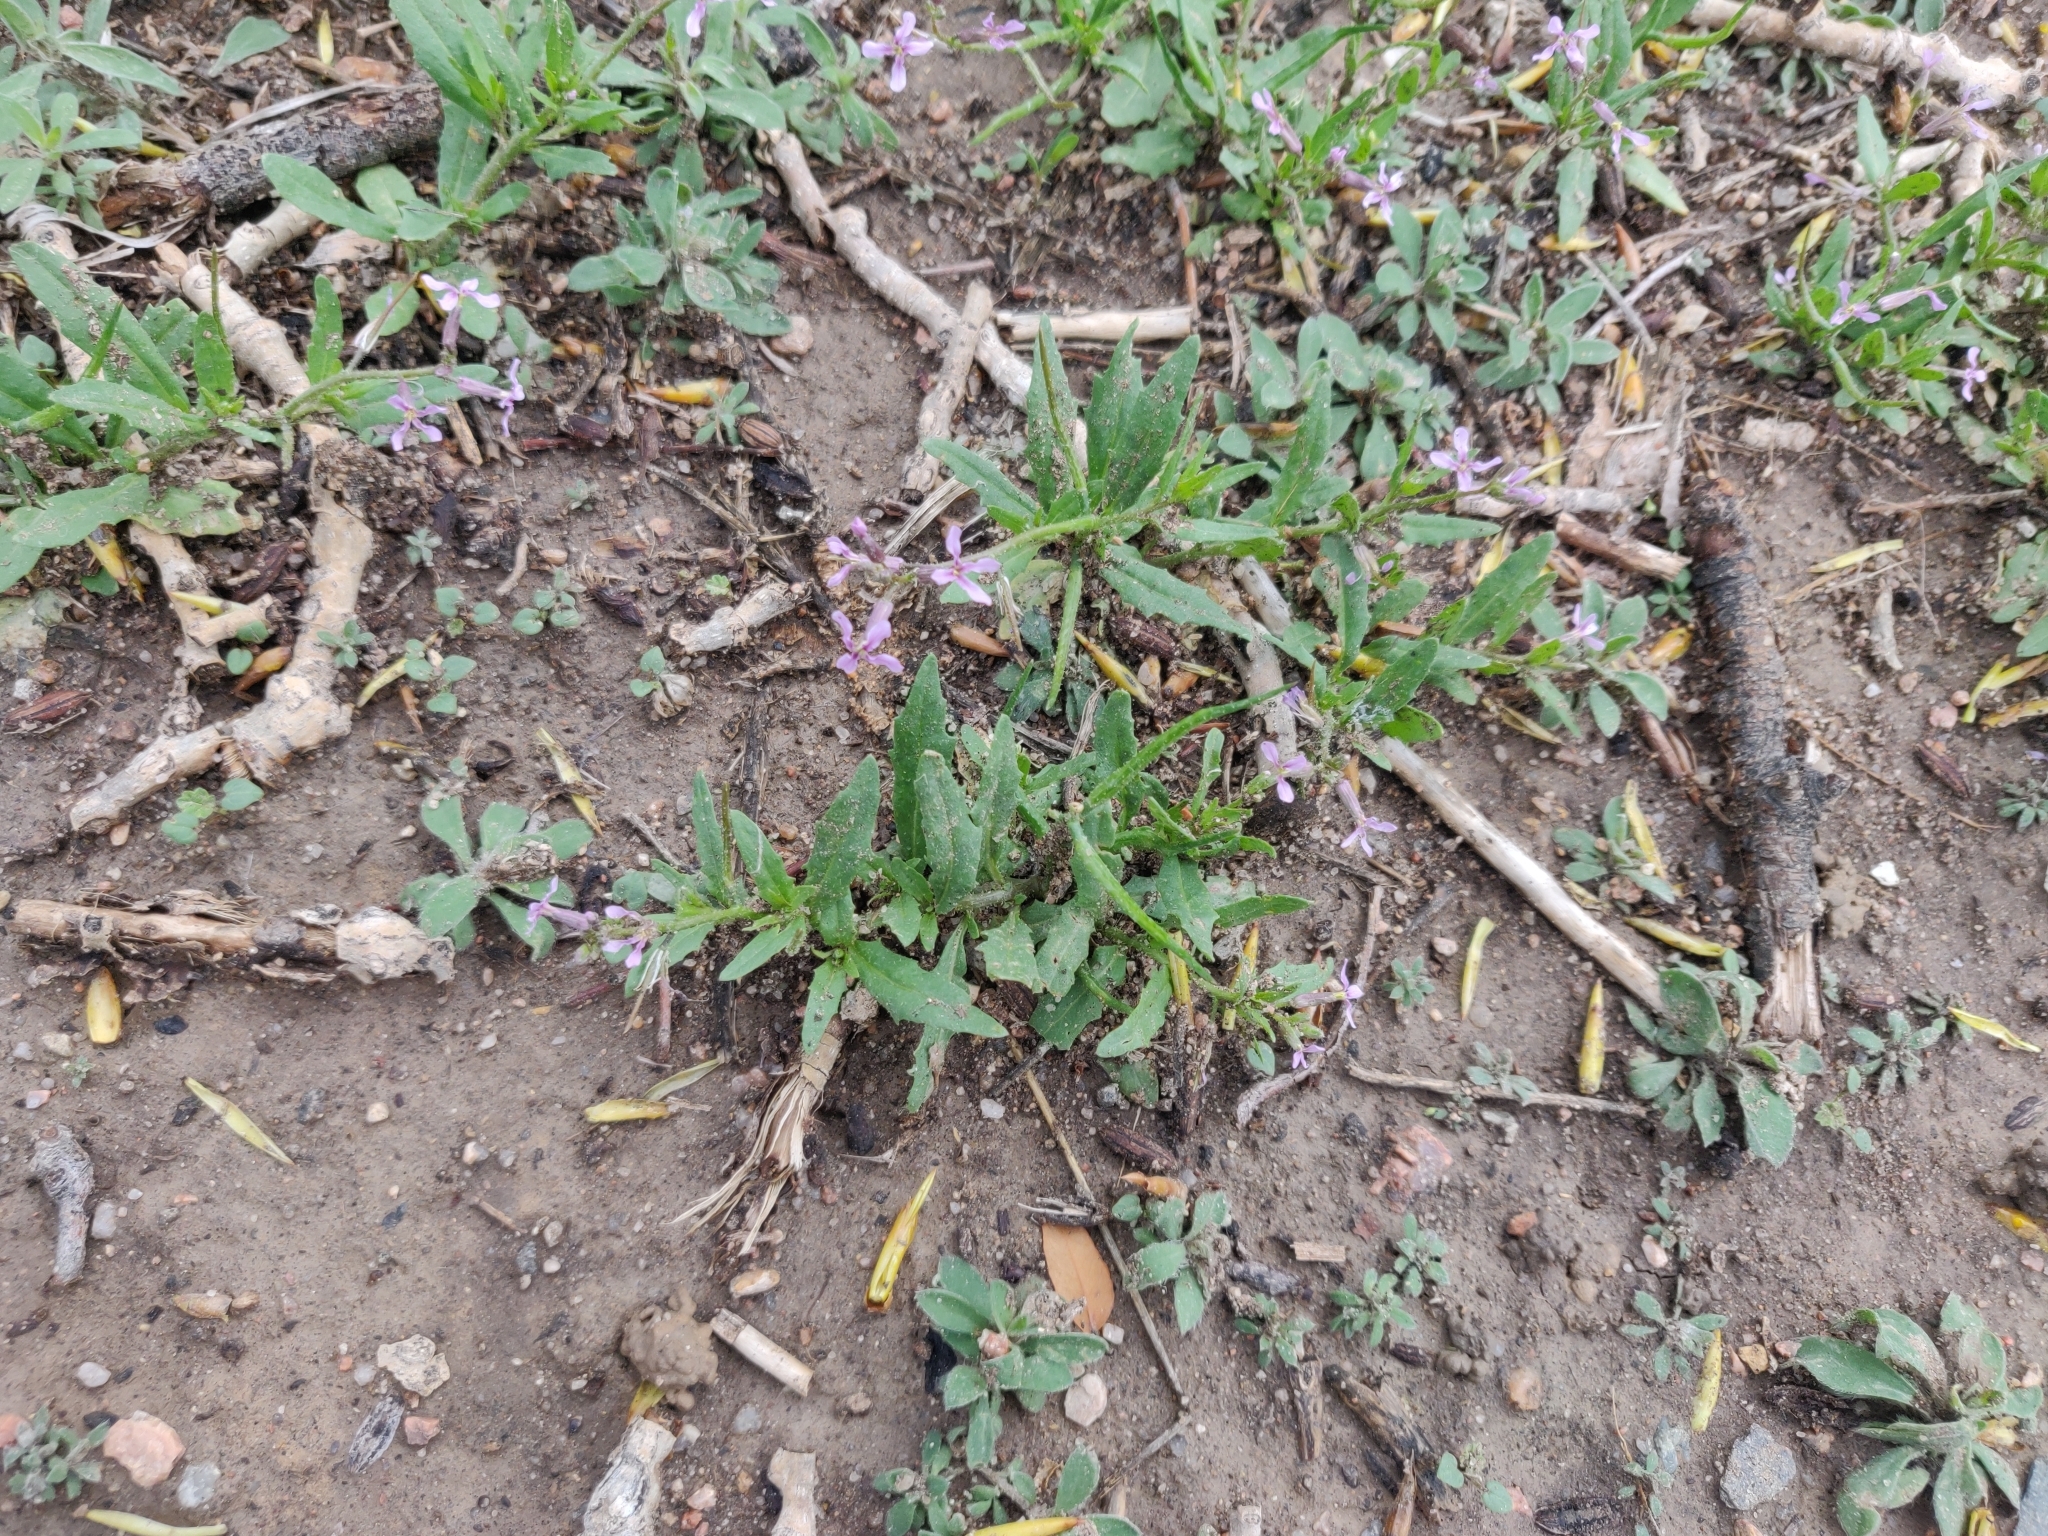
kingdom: Plantae
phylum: Tracheophyta
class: Magnoliopsida
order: Brassicales
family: Brassicaceae
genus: Chorispora
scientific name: Chorispora tenella
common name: Crossflower
